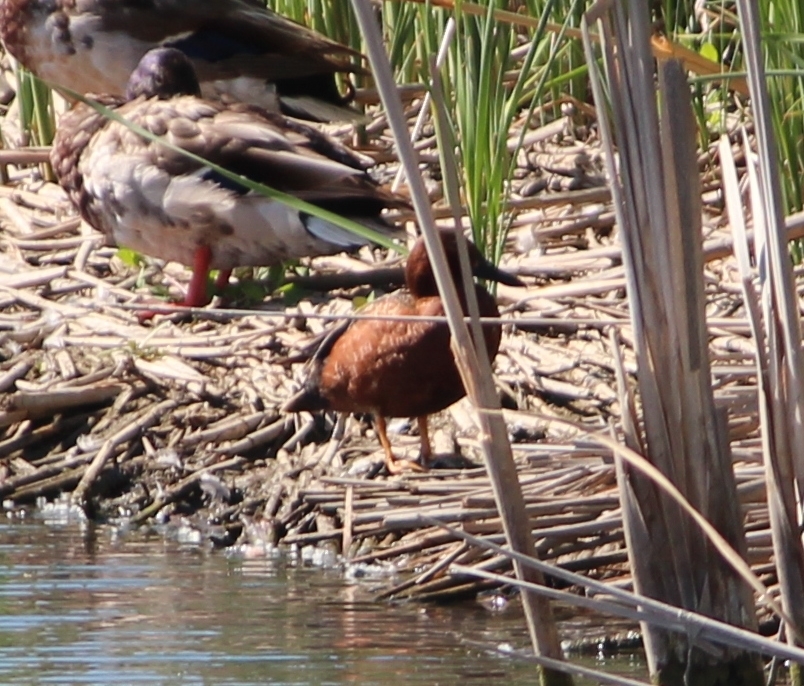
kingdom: Animalia
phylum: Chordata
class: Aves
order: Anseriformes
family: Anatidae
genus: Spatula
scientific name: Spatula cyanoptera
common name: Cinnamon teal
